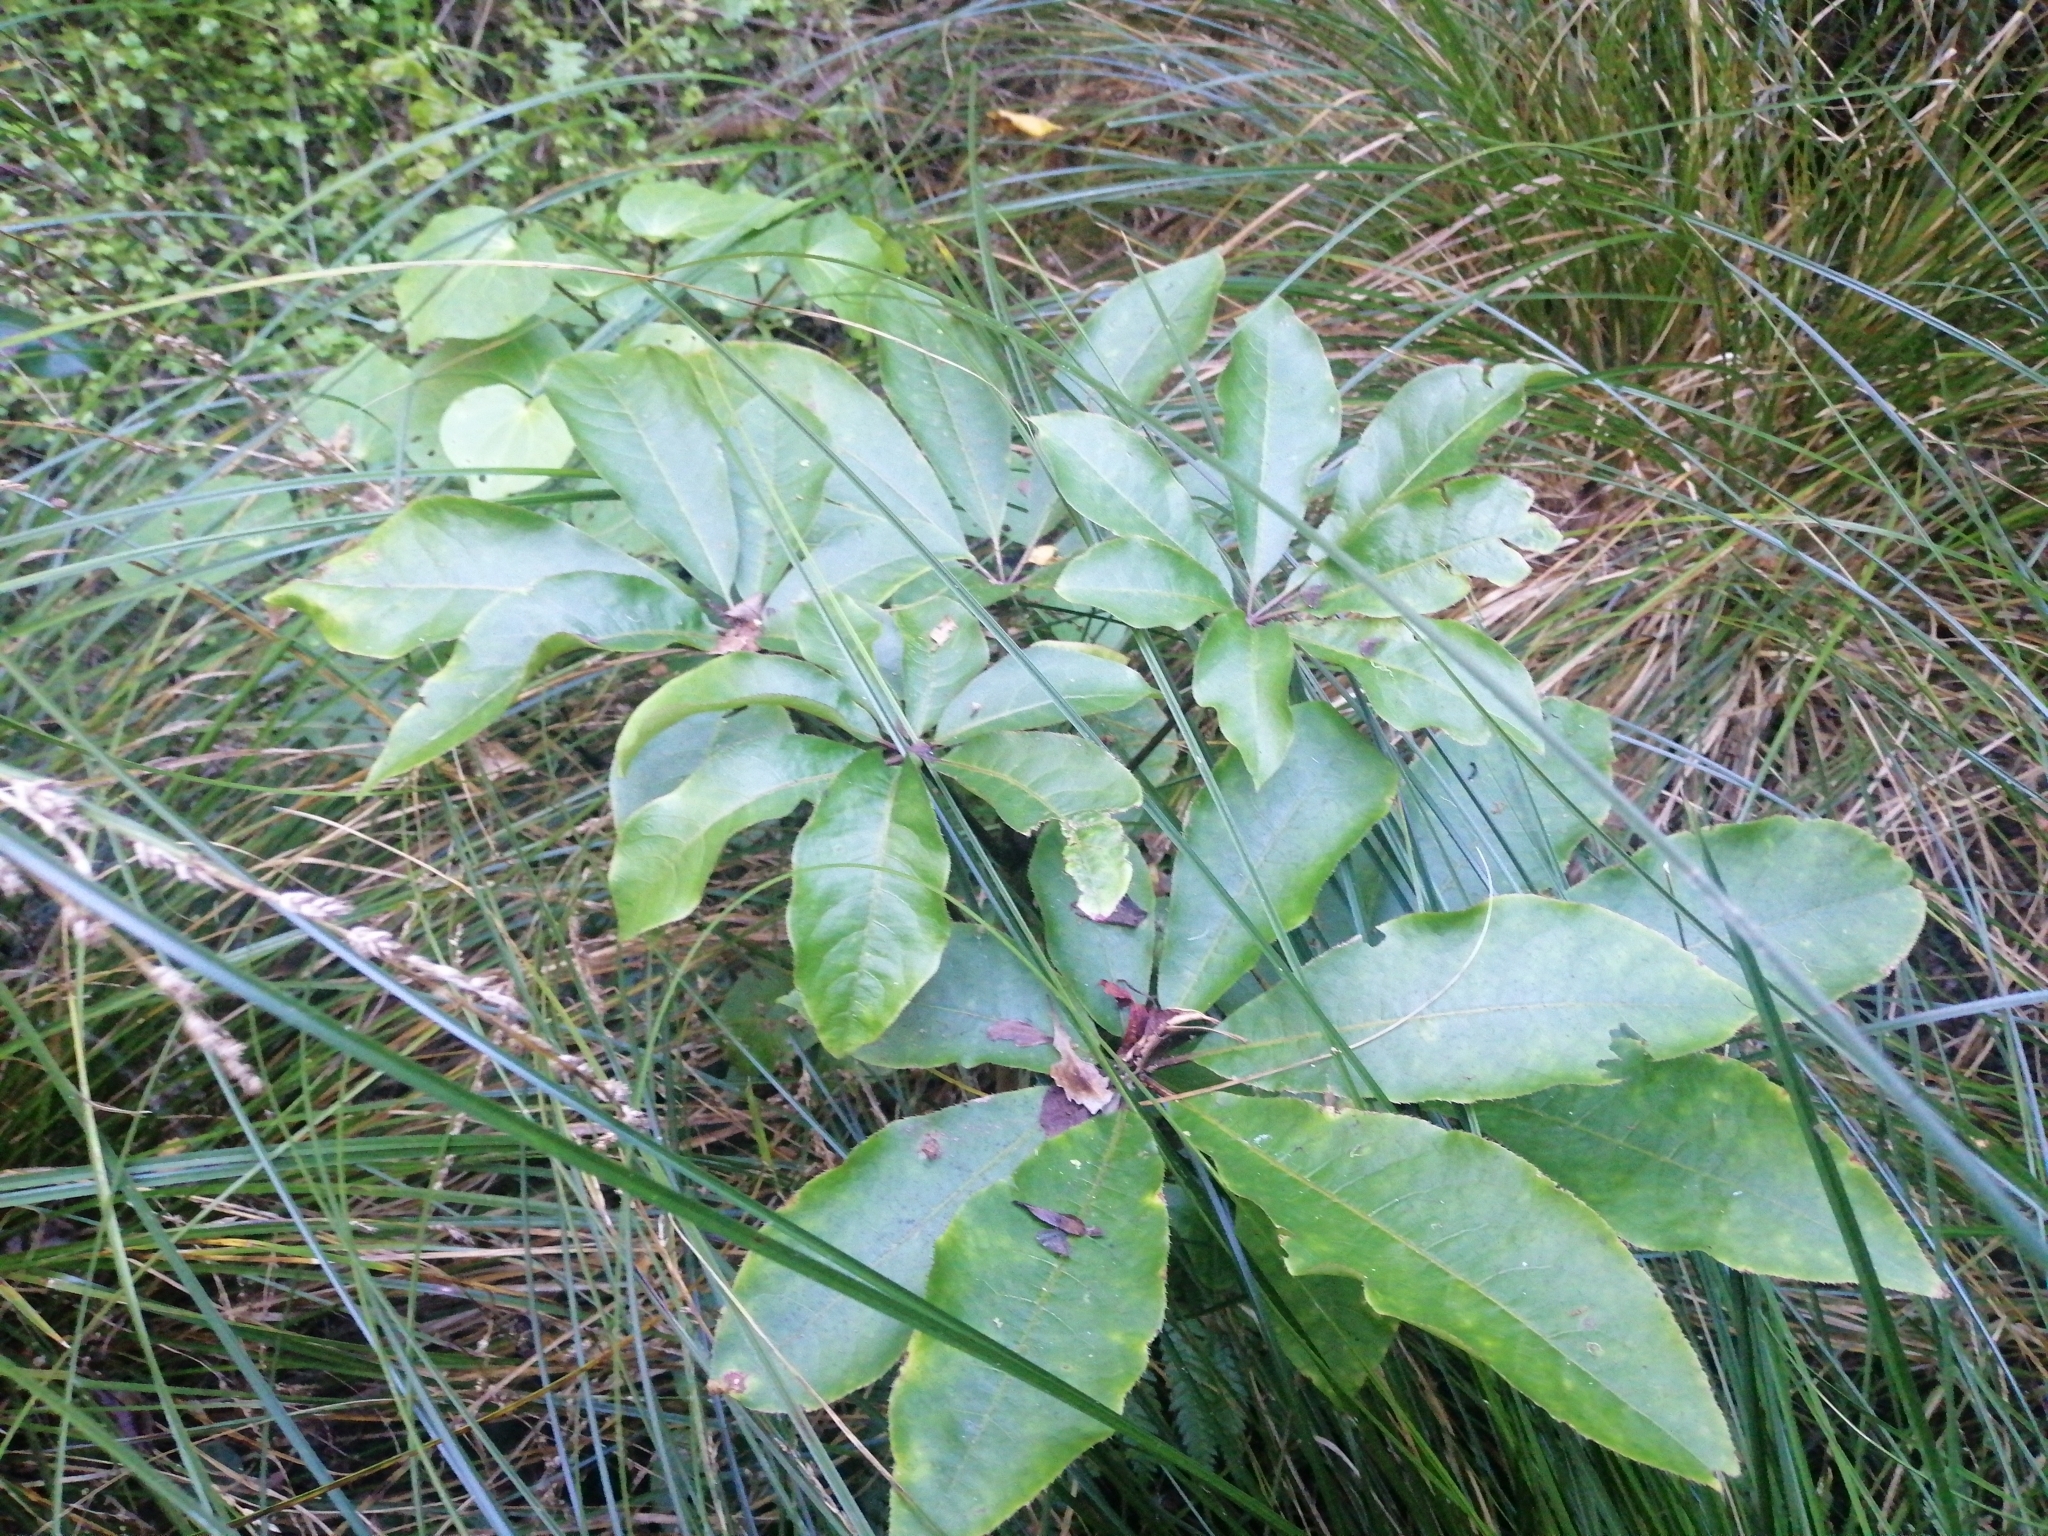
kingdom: Plantae
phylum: Tracheophyta
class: Magnoliopsida
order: Apiales
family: Araliaceae
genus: Schefflera
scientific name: Schefflera digitata
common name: Pate
